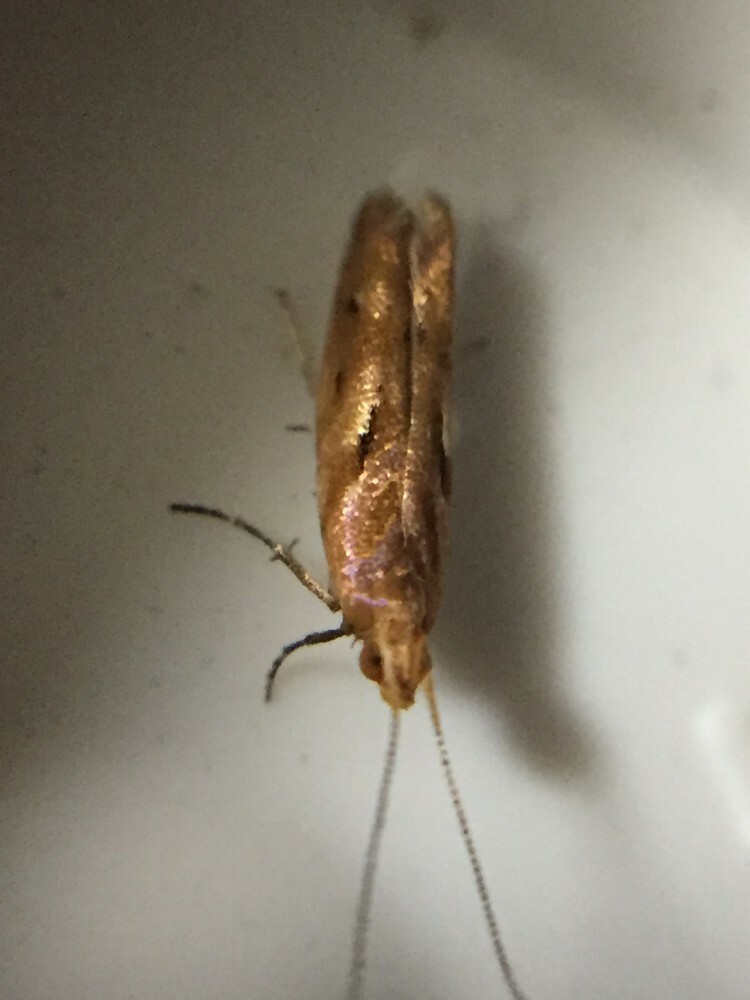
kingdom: Animalia
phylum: Arthropoda
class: Insecta
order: Lepidoptera
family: Glyphipterigidae
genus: Chrysorthenches
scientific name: Chrysorthenches virgata
